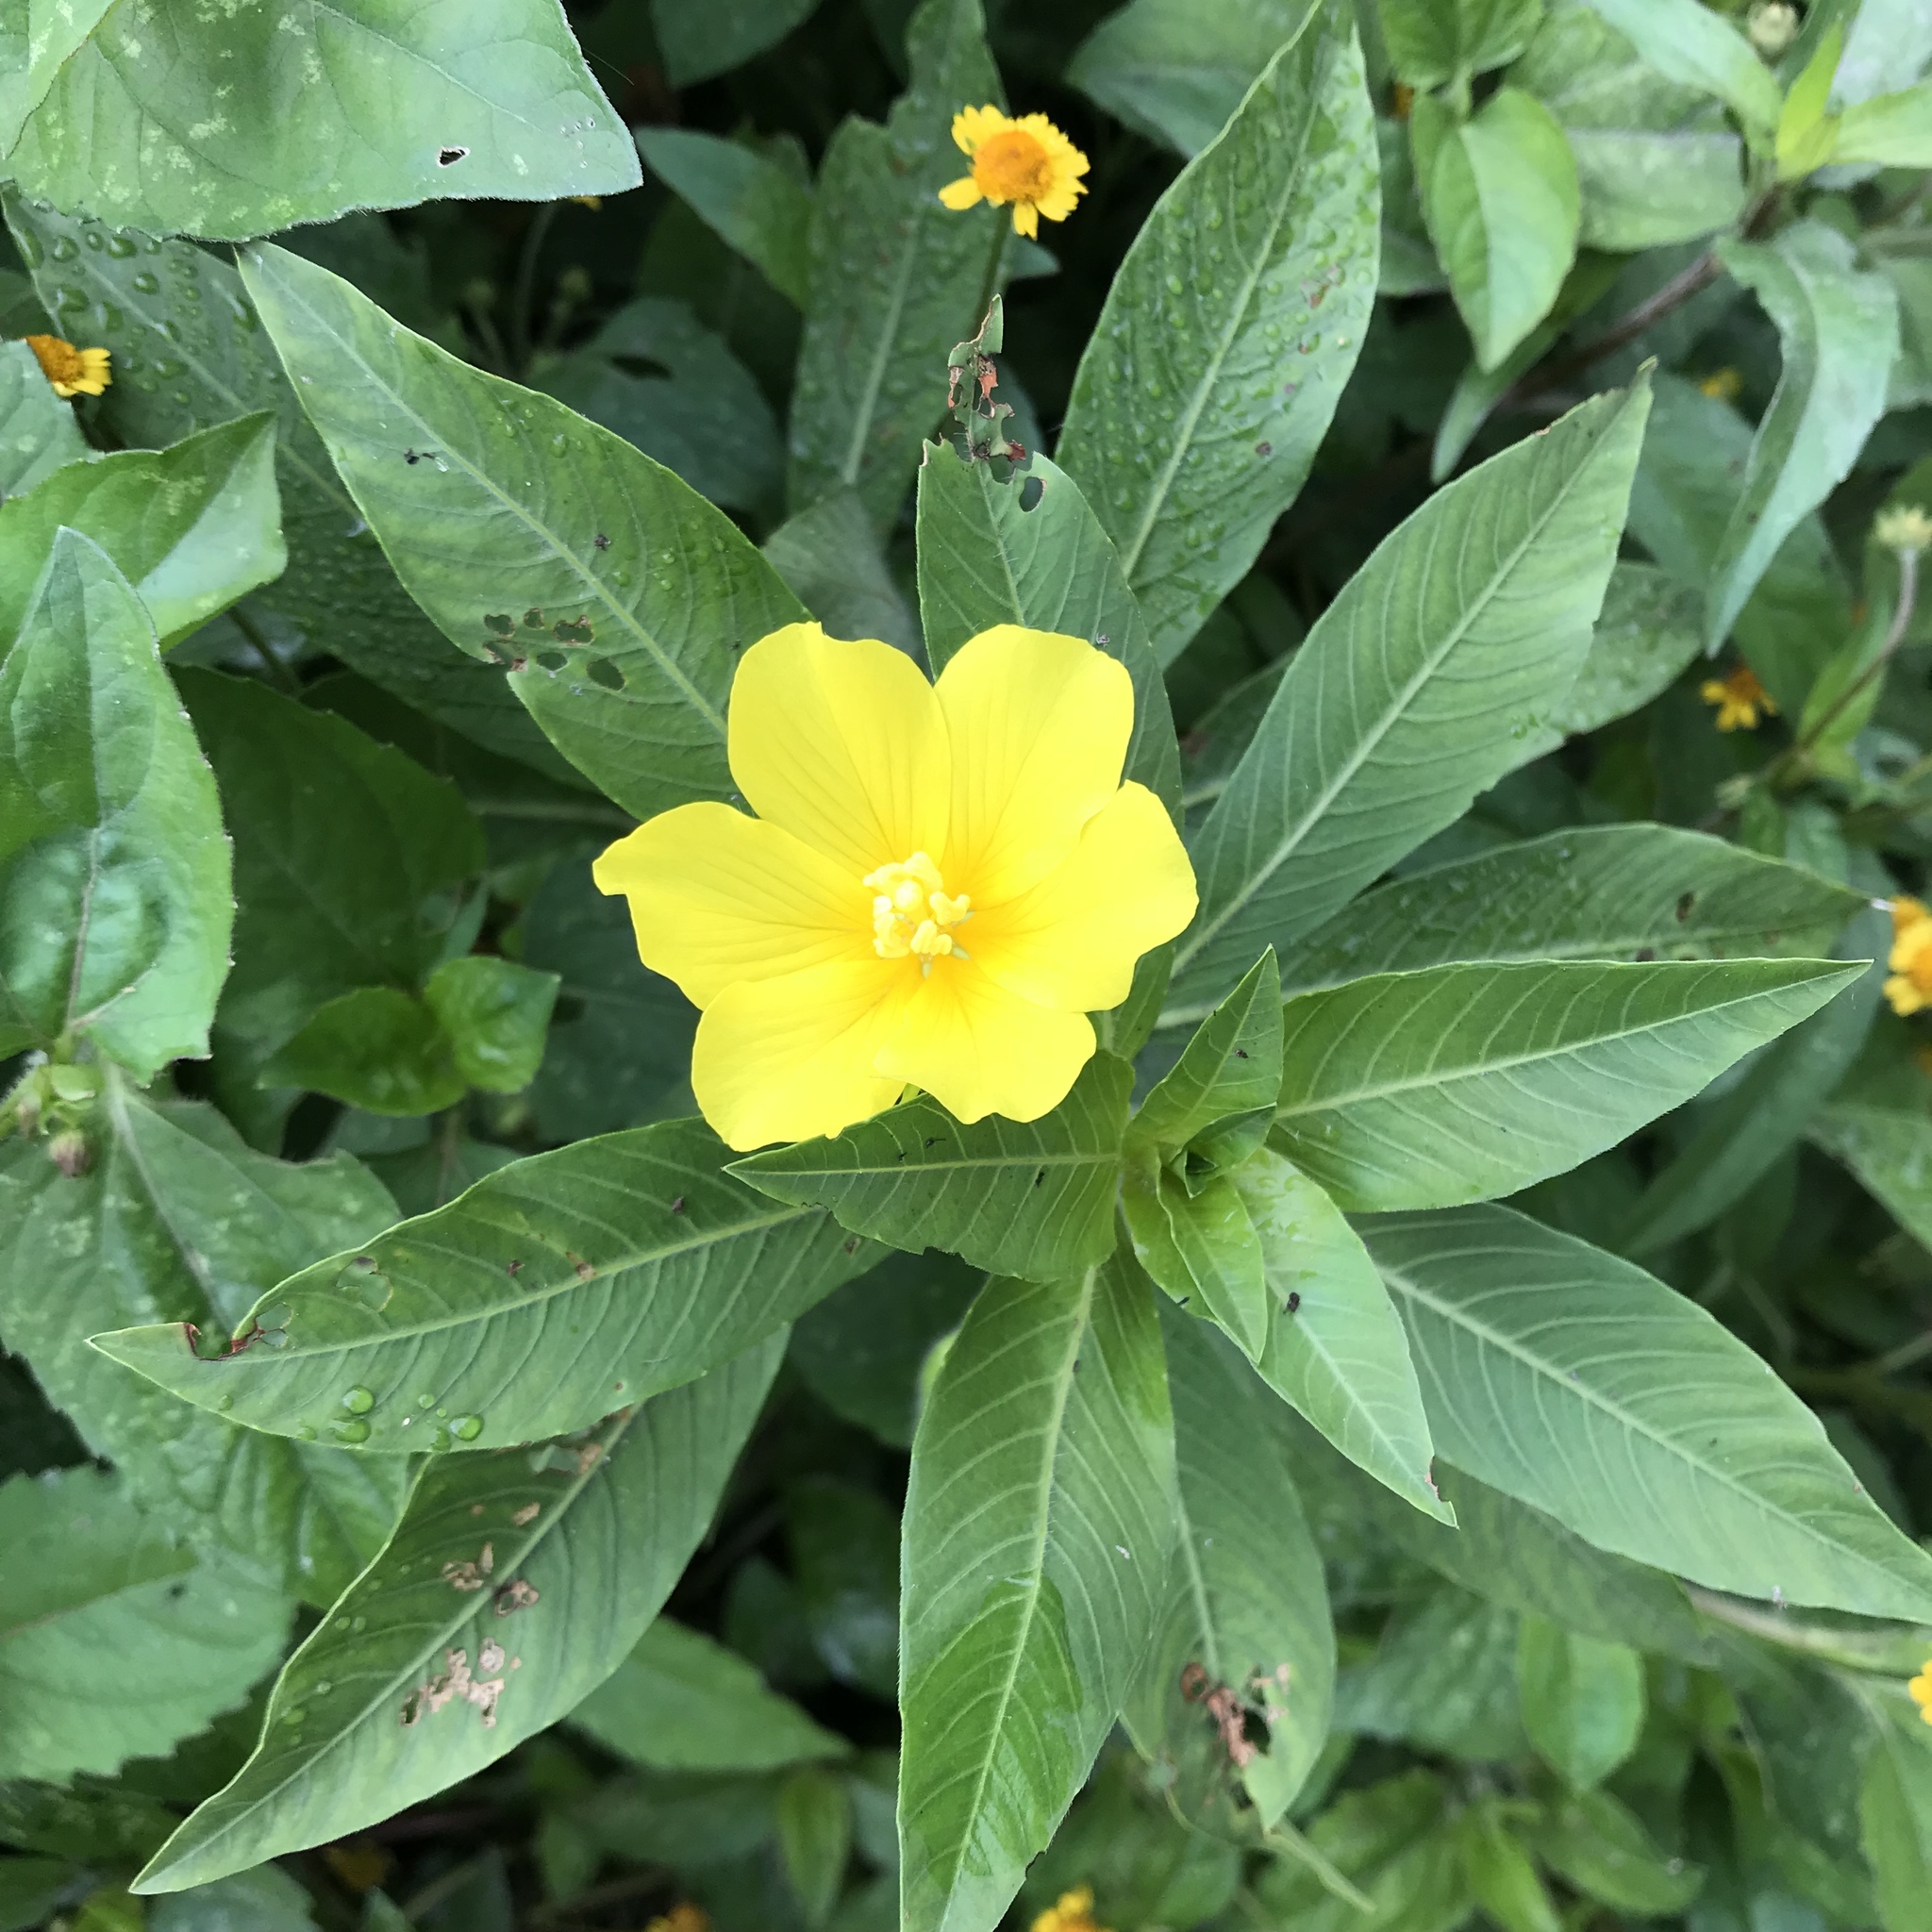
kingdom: Plantae
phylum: Tracheophyta
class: Magnoliopsida
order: Myrtales
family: Onagraceae
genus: Ludwigia
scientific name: Ludwigia peploides
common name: Floating primrose-willow
